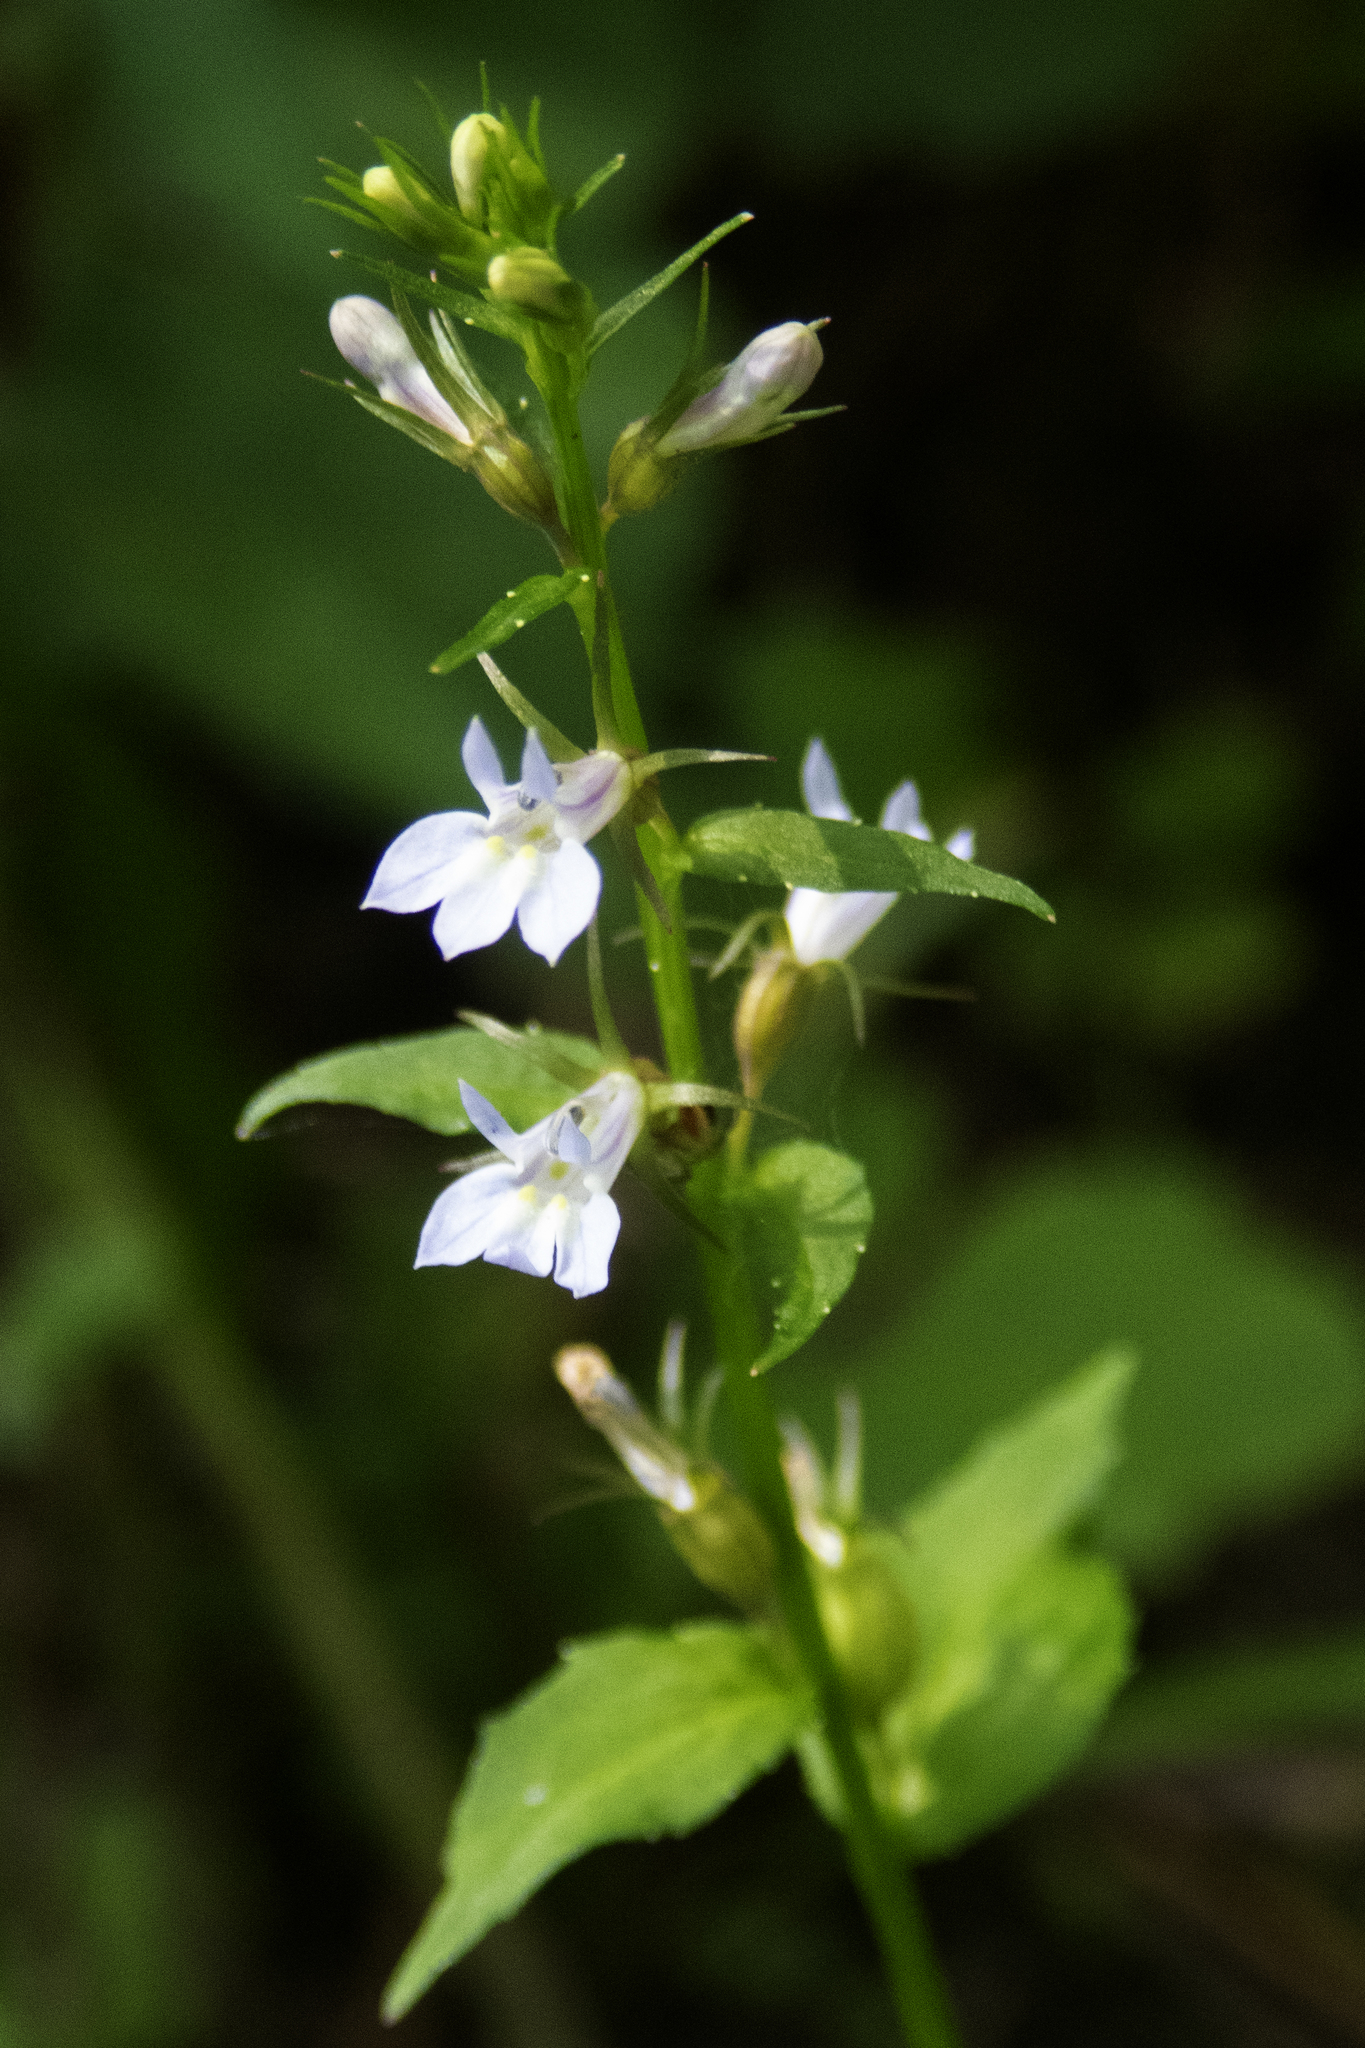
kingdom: Plantae
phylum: Tracheophyta
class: Magnoliopsida
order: Asterales
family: Campanulaceae
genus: Lobelia
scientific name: Lobelia inflata
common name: Indian tobacco
